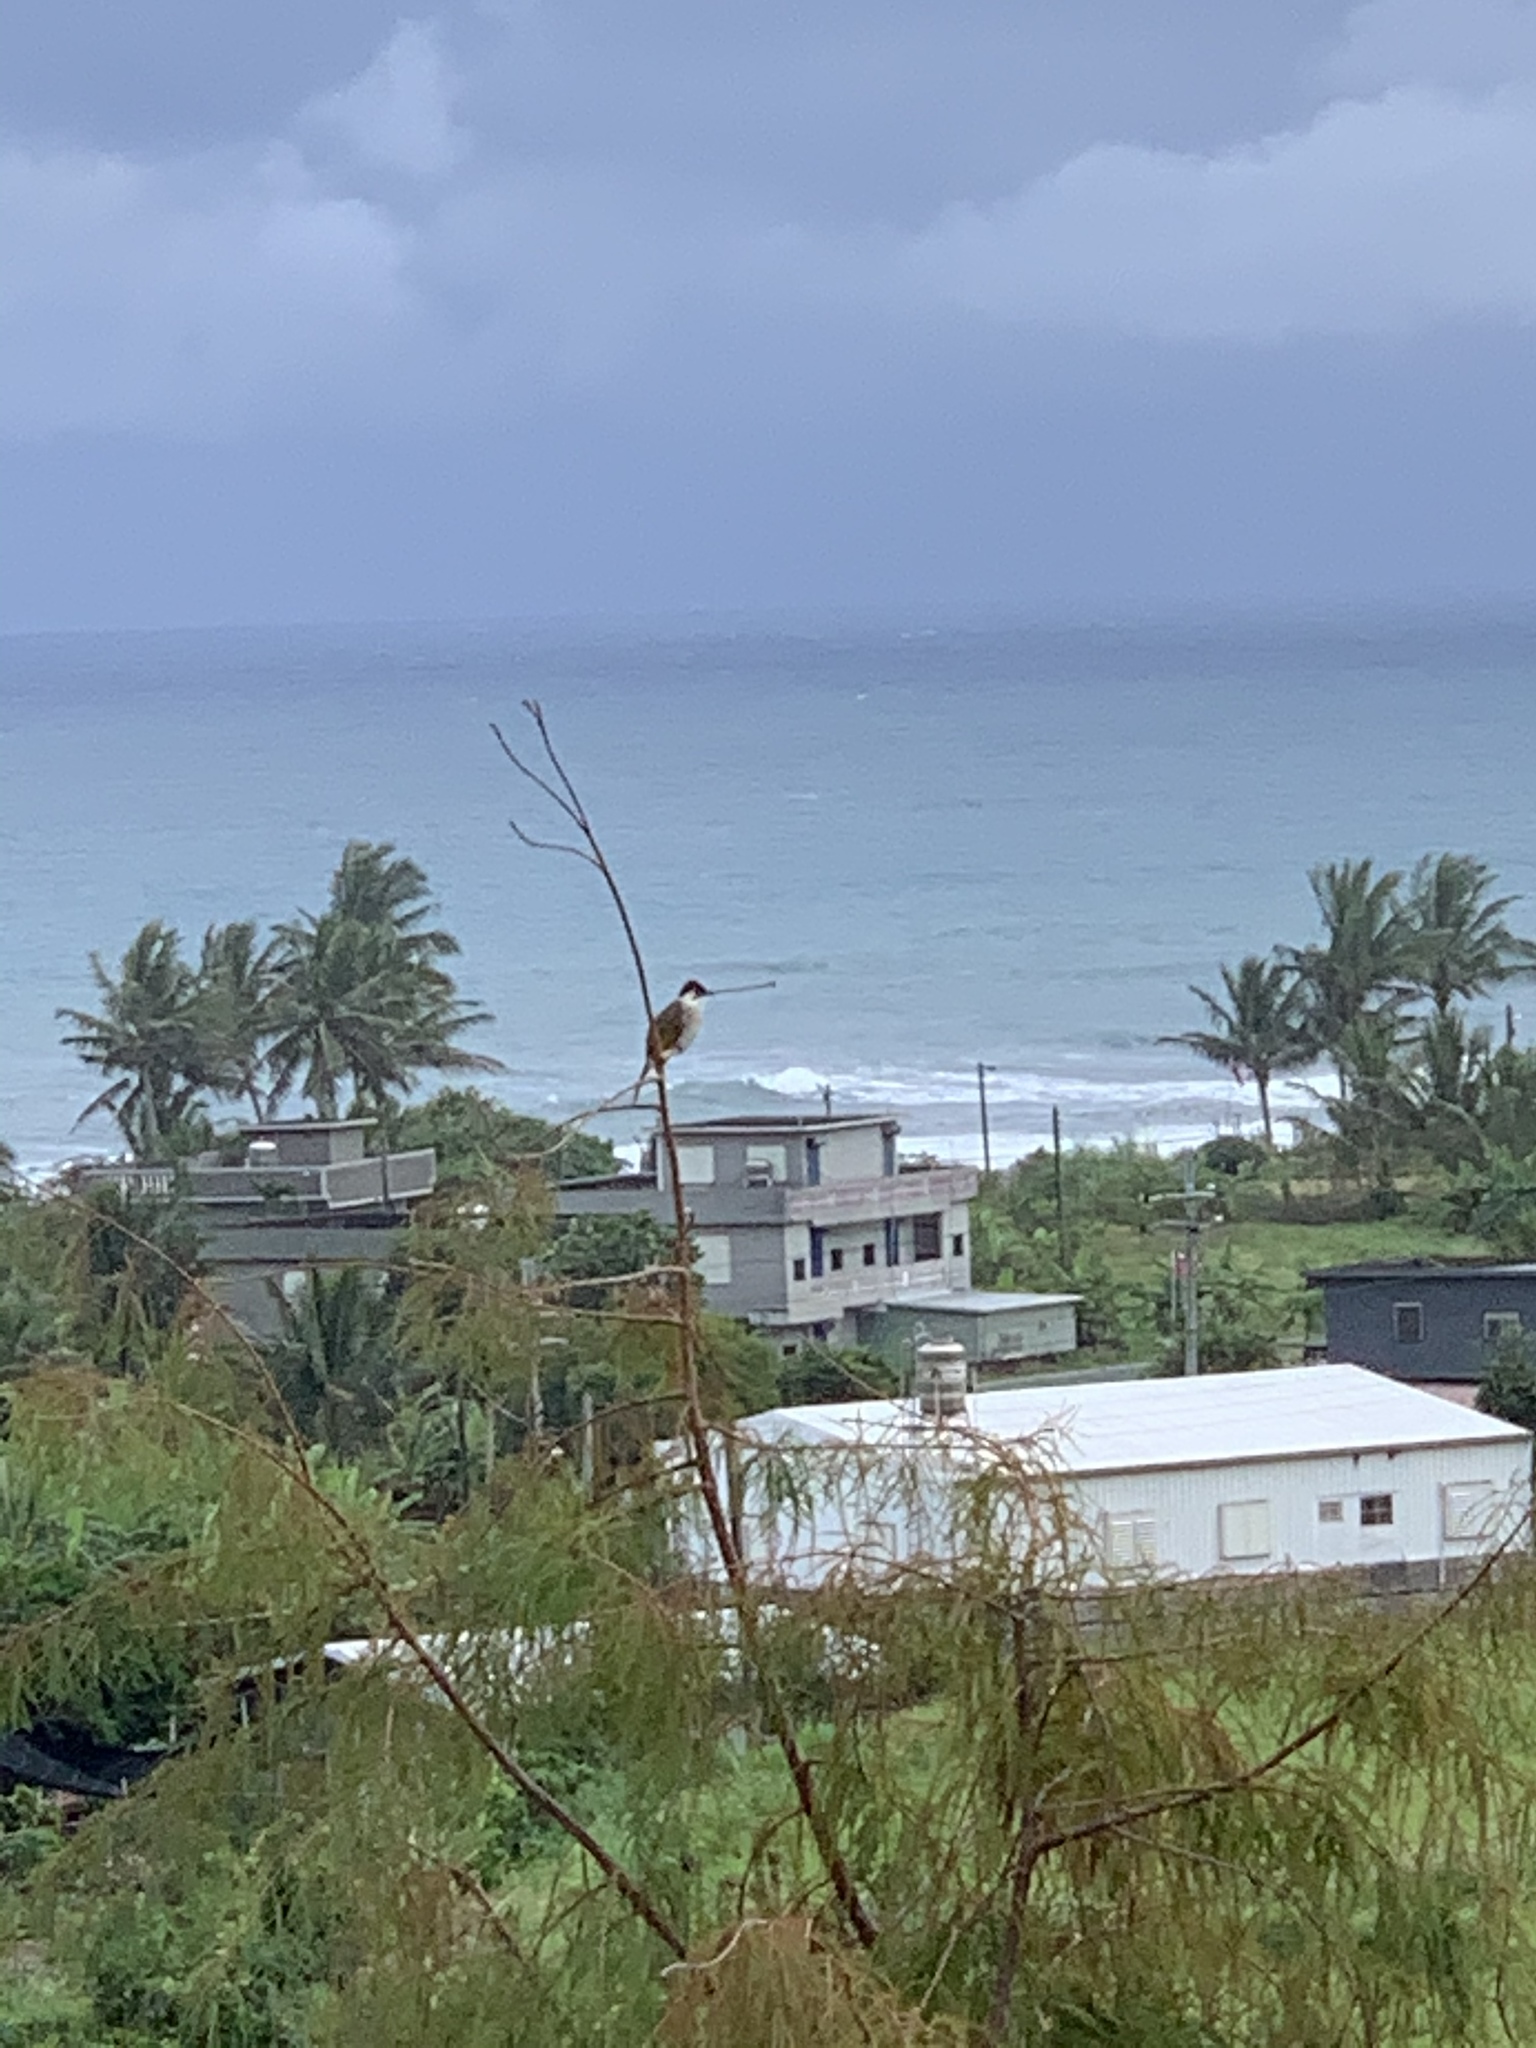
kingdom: Animalia
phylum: Chordata
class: Aves
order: Passeriformes
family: Pycnonotidae
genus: Pycnonotus
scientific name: Pycnonotus taivanus
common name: Styan's bulbul
